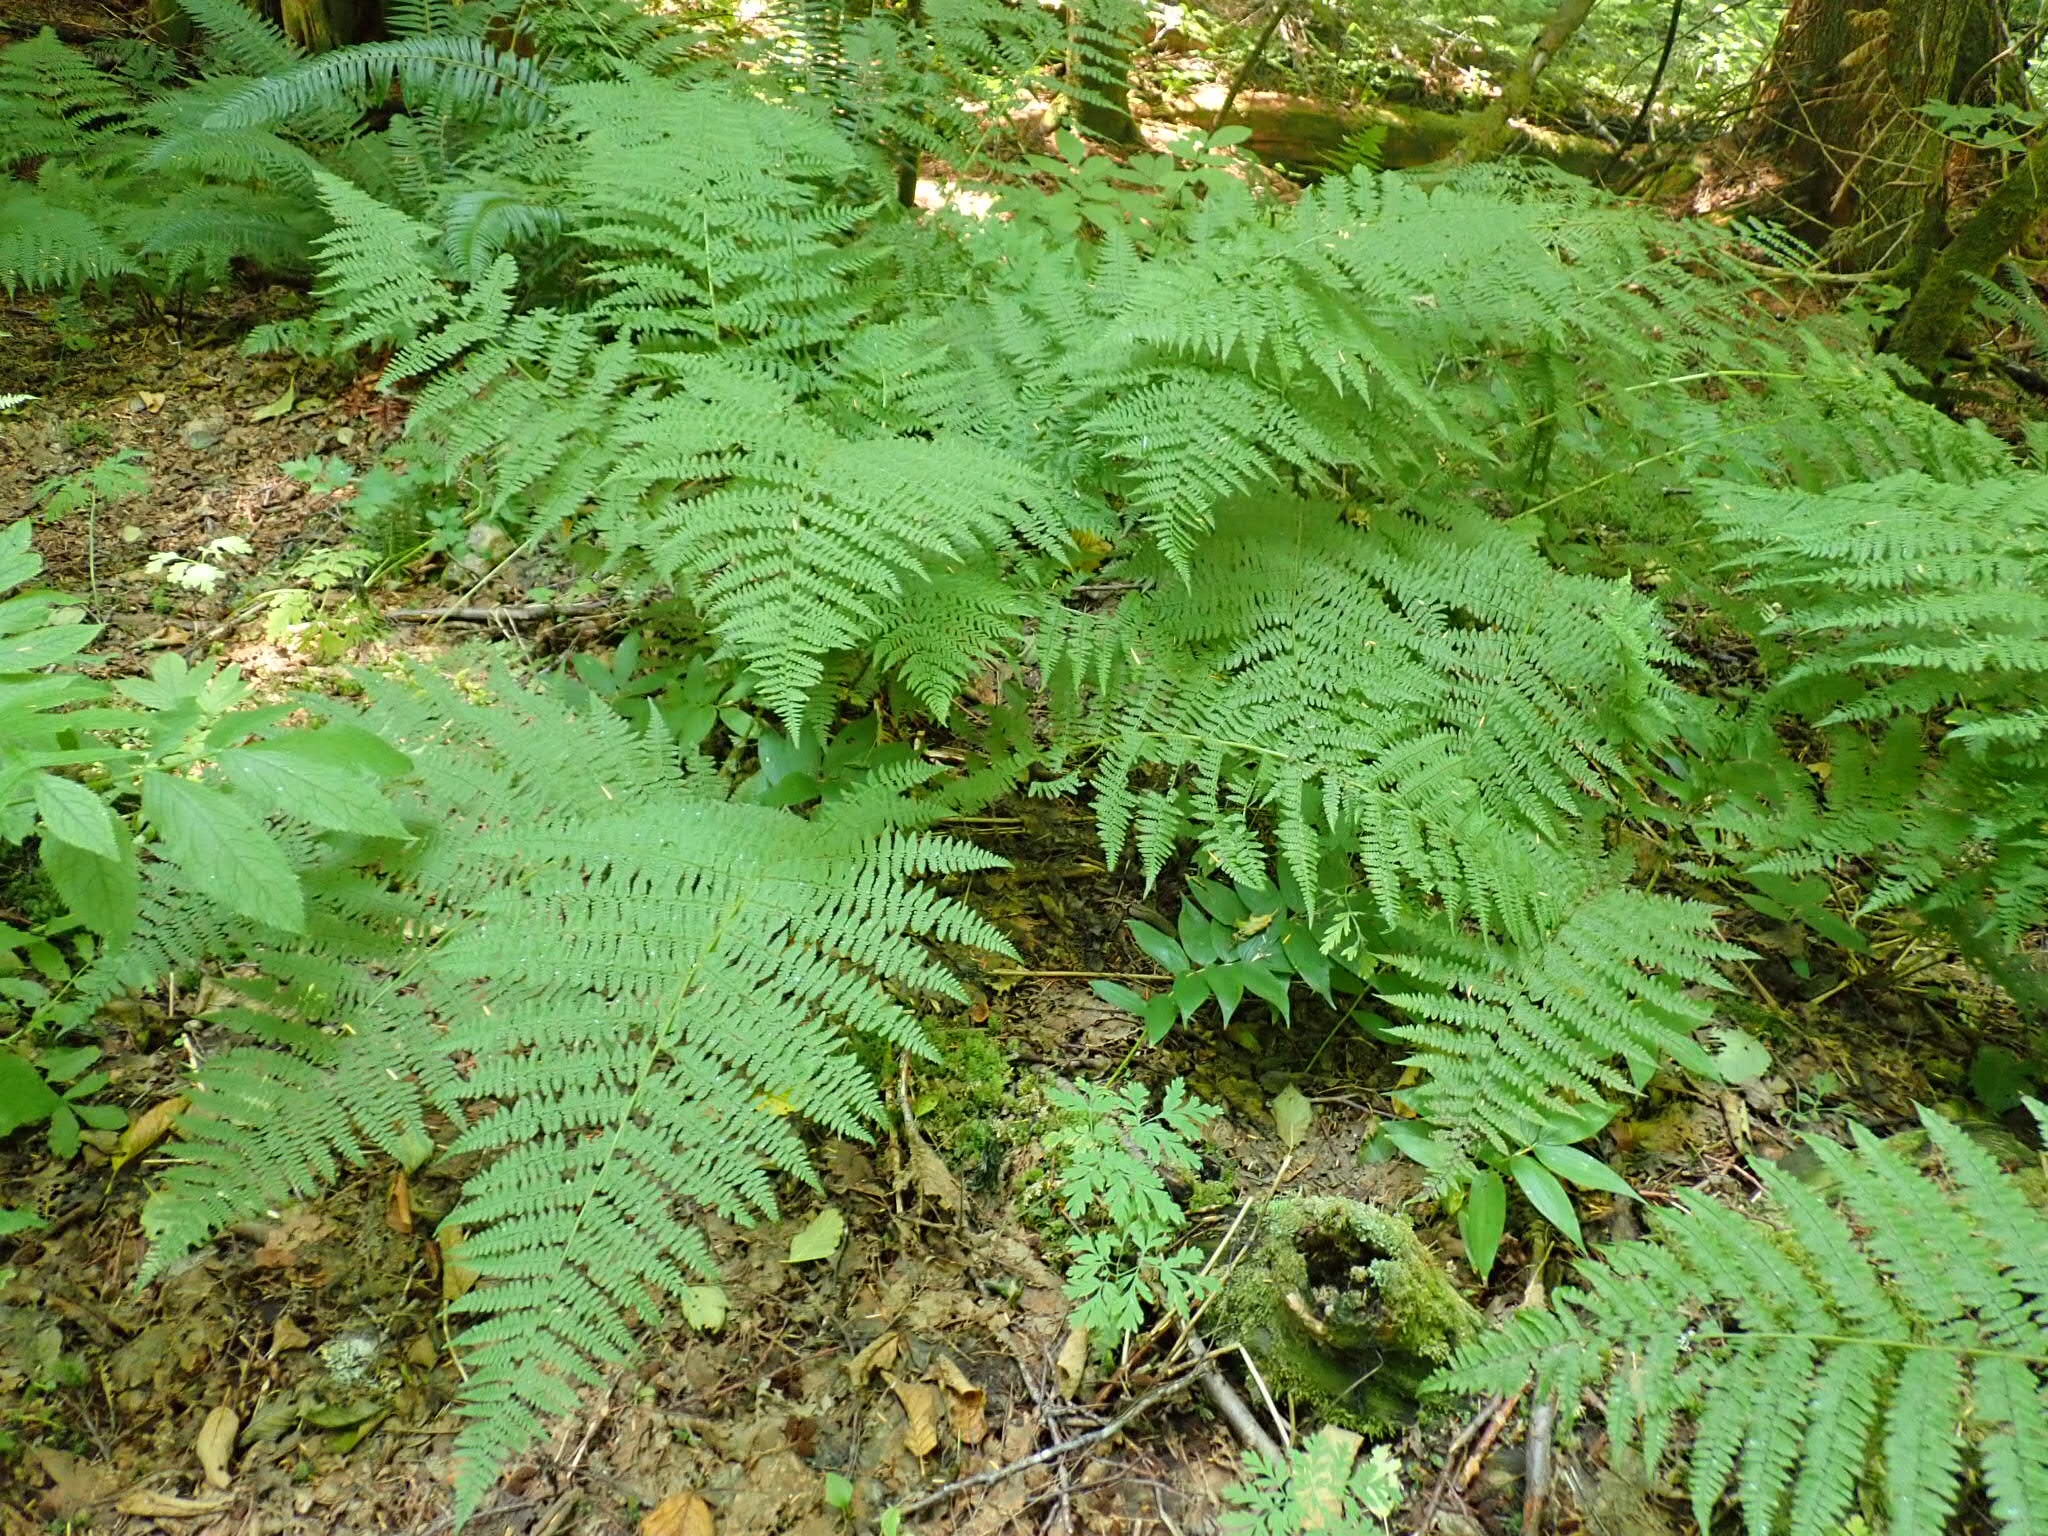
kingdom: Plantae
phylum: Tracheophyta
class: Polypodiopsida
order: Polypodiales
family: Athyriaceae
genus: Athyrium
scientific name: Athyrium filix-femina
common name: Lady fern
